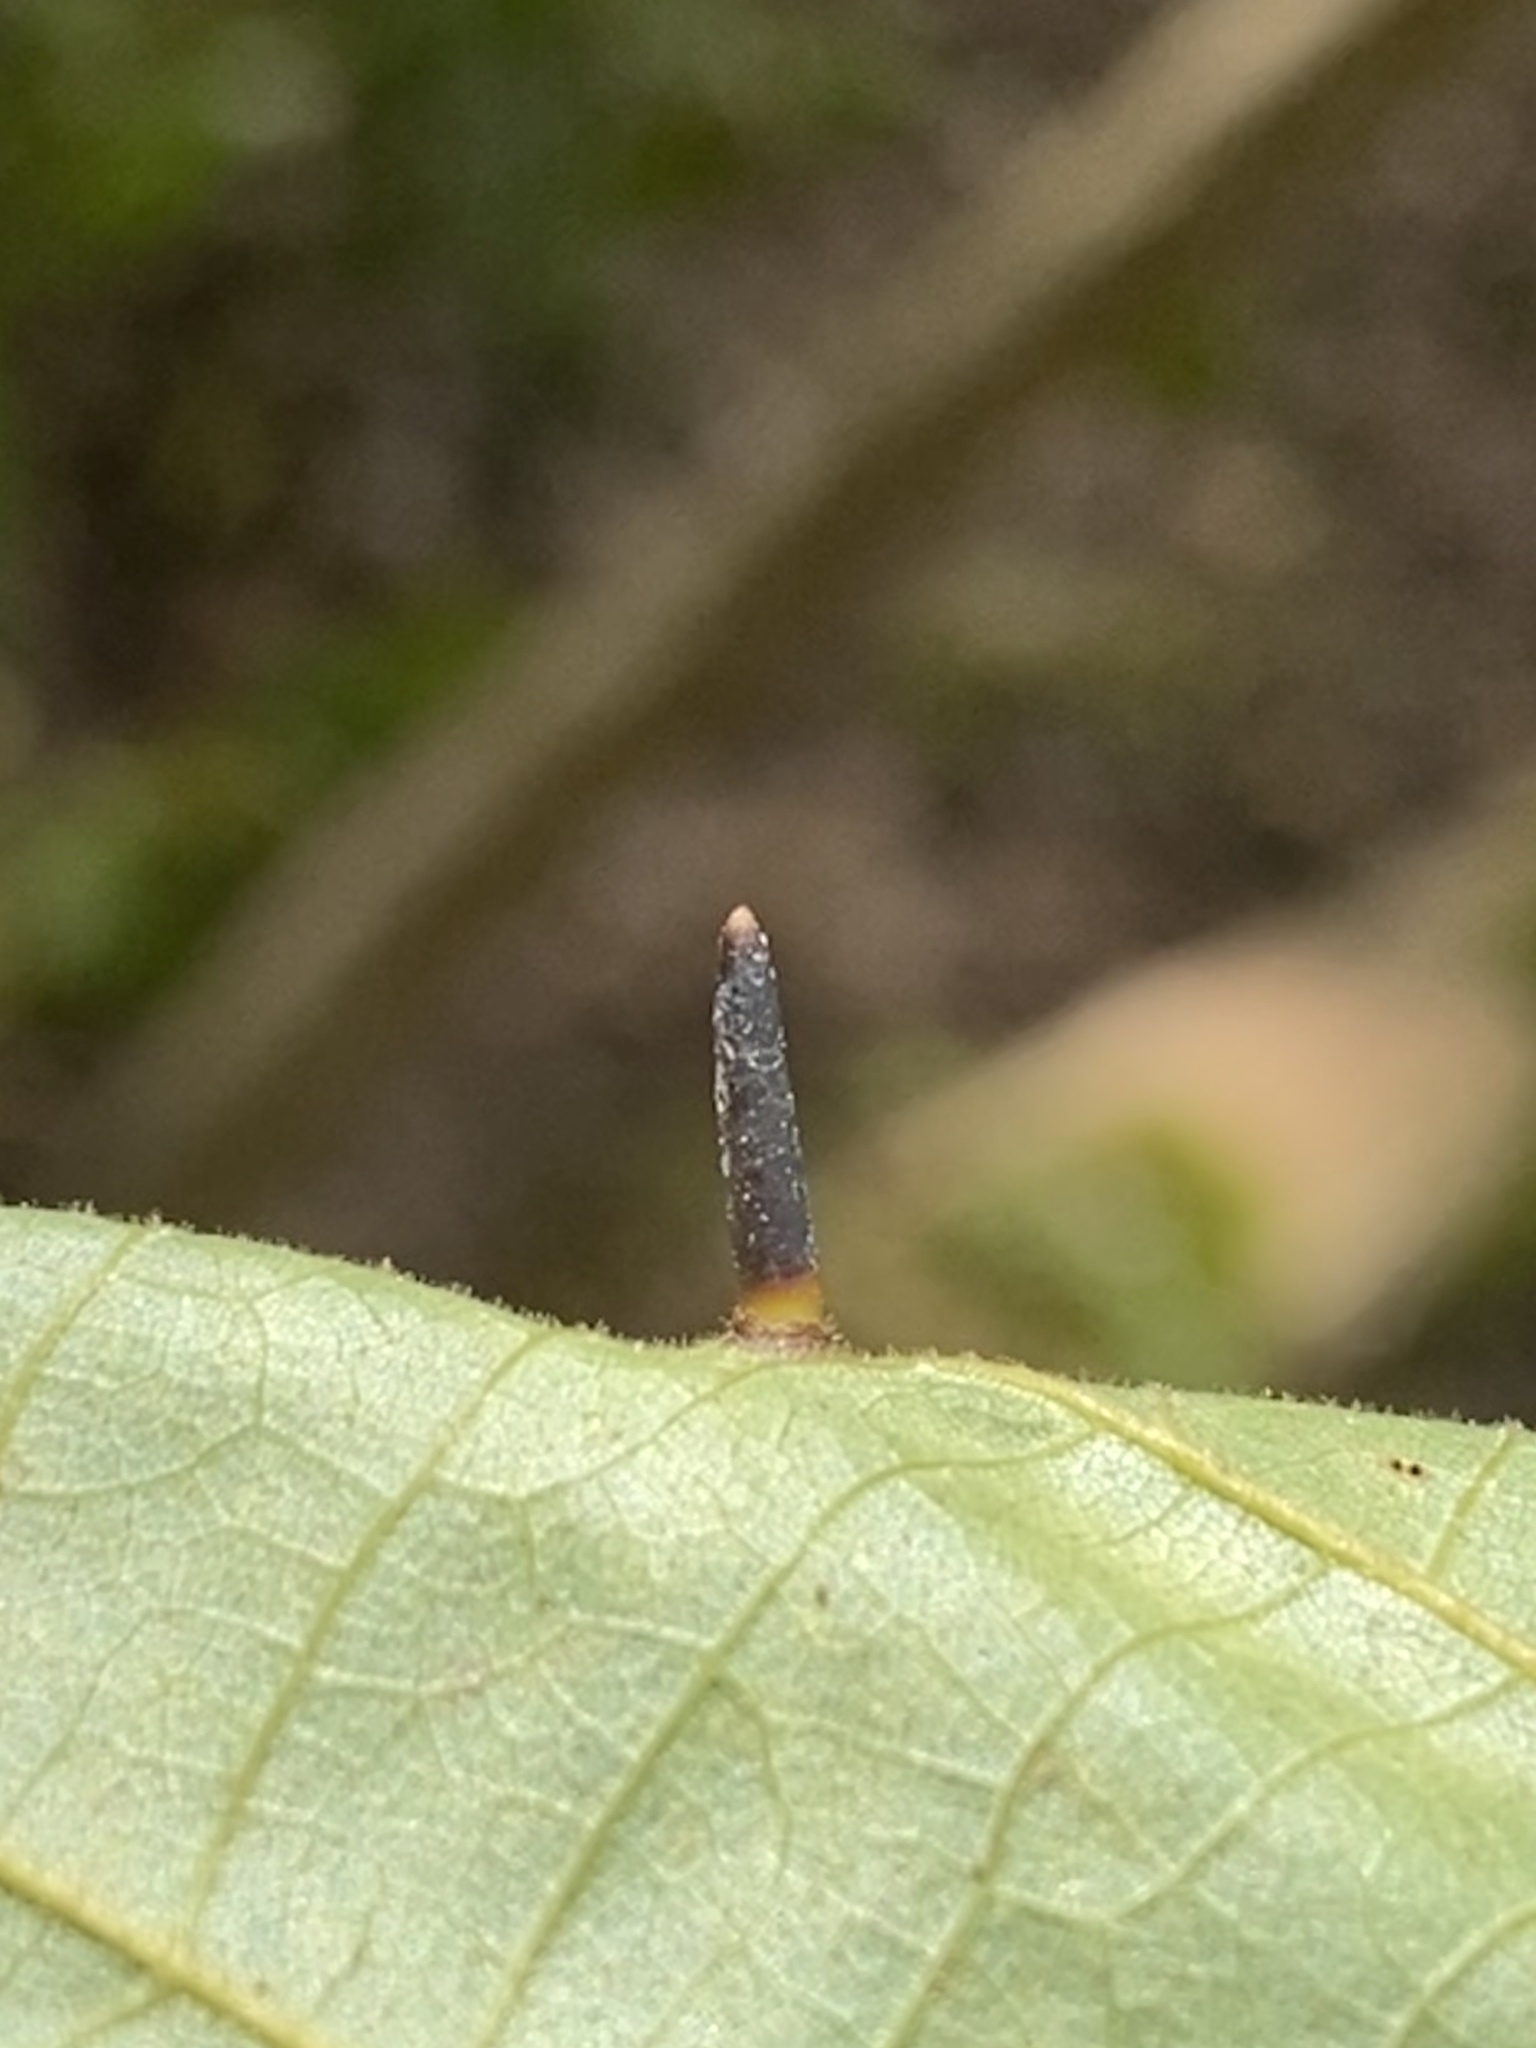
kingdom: Animalia
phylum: Arthropoda
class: Insecta
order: Diptera
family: Cecidomyiidae
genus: Caryomyia
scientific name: Caryomyia subulata
